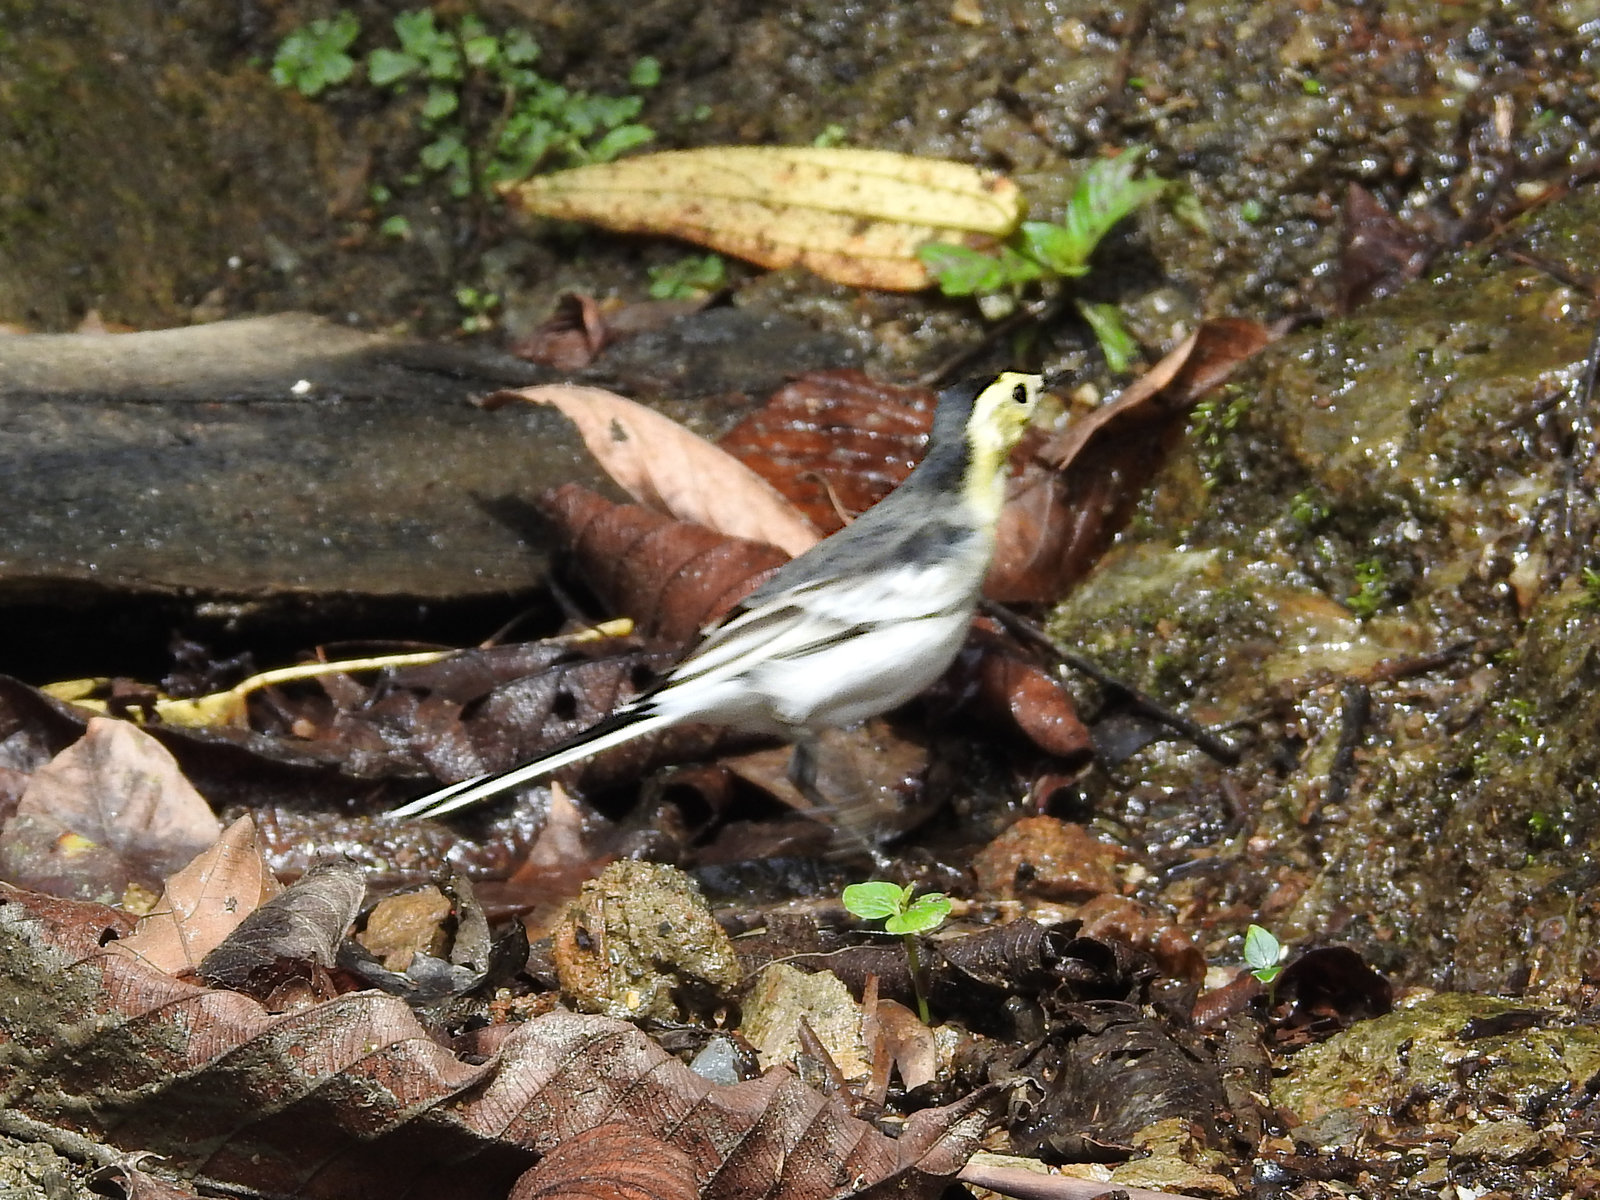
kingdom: Animalia
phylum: Chordata
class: Aves
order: Passeriformes
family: Motacillidae
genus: Motacilla
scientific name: Motacilla alba
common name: White wagtail
